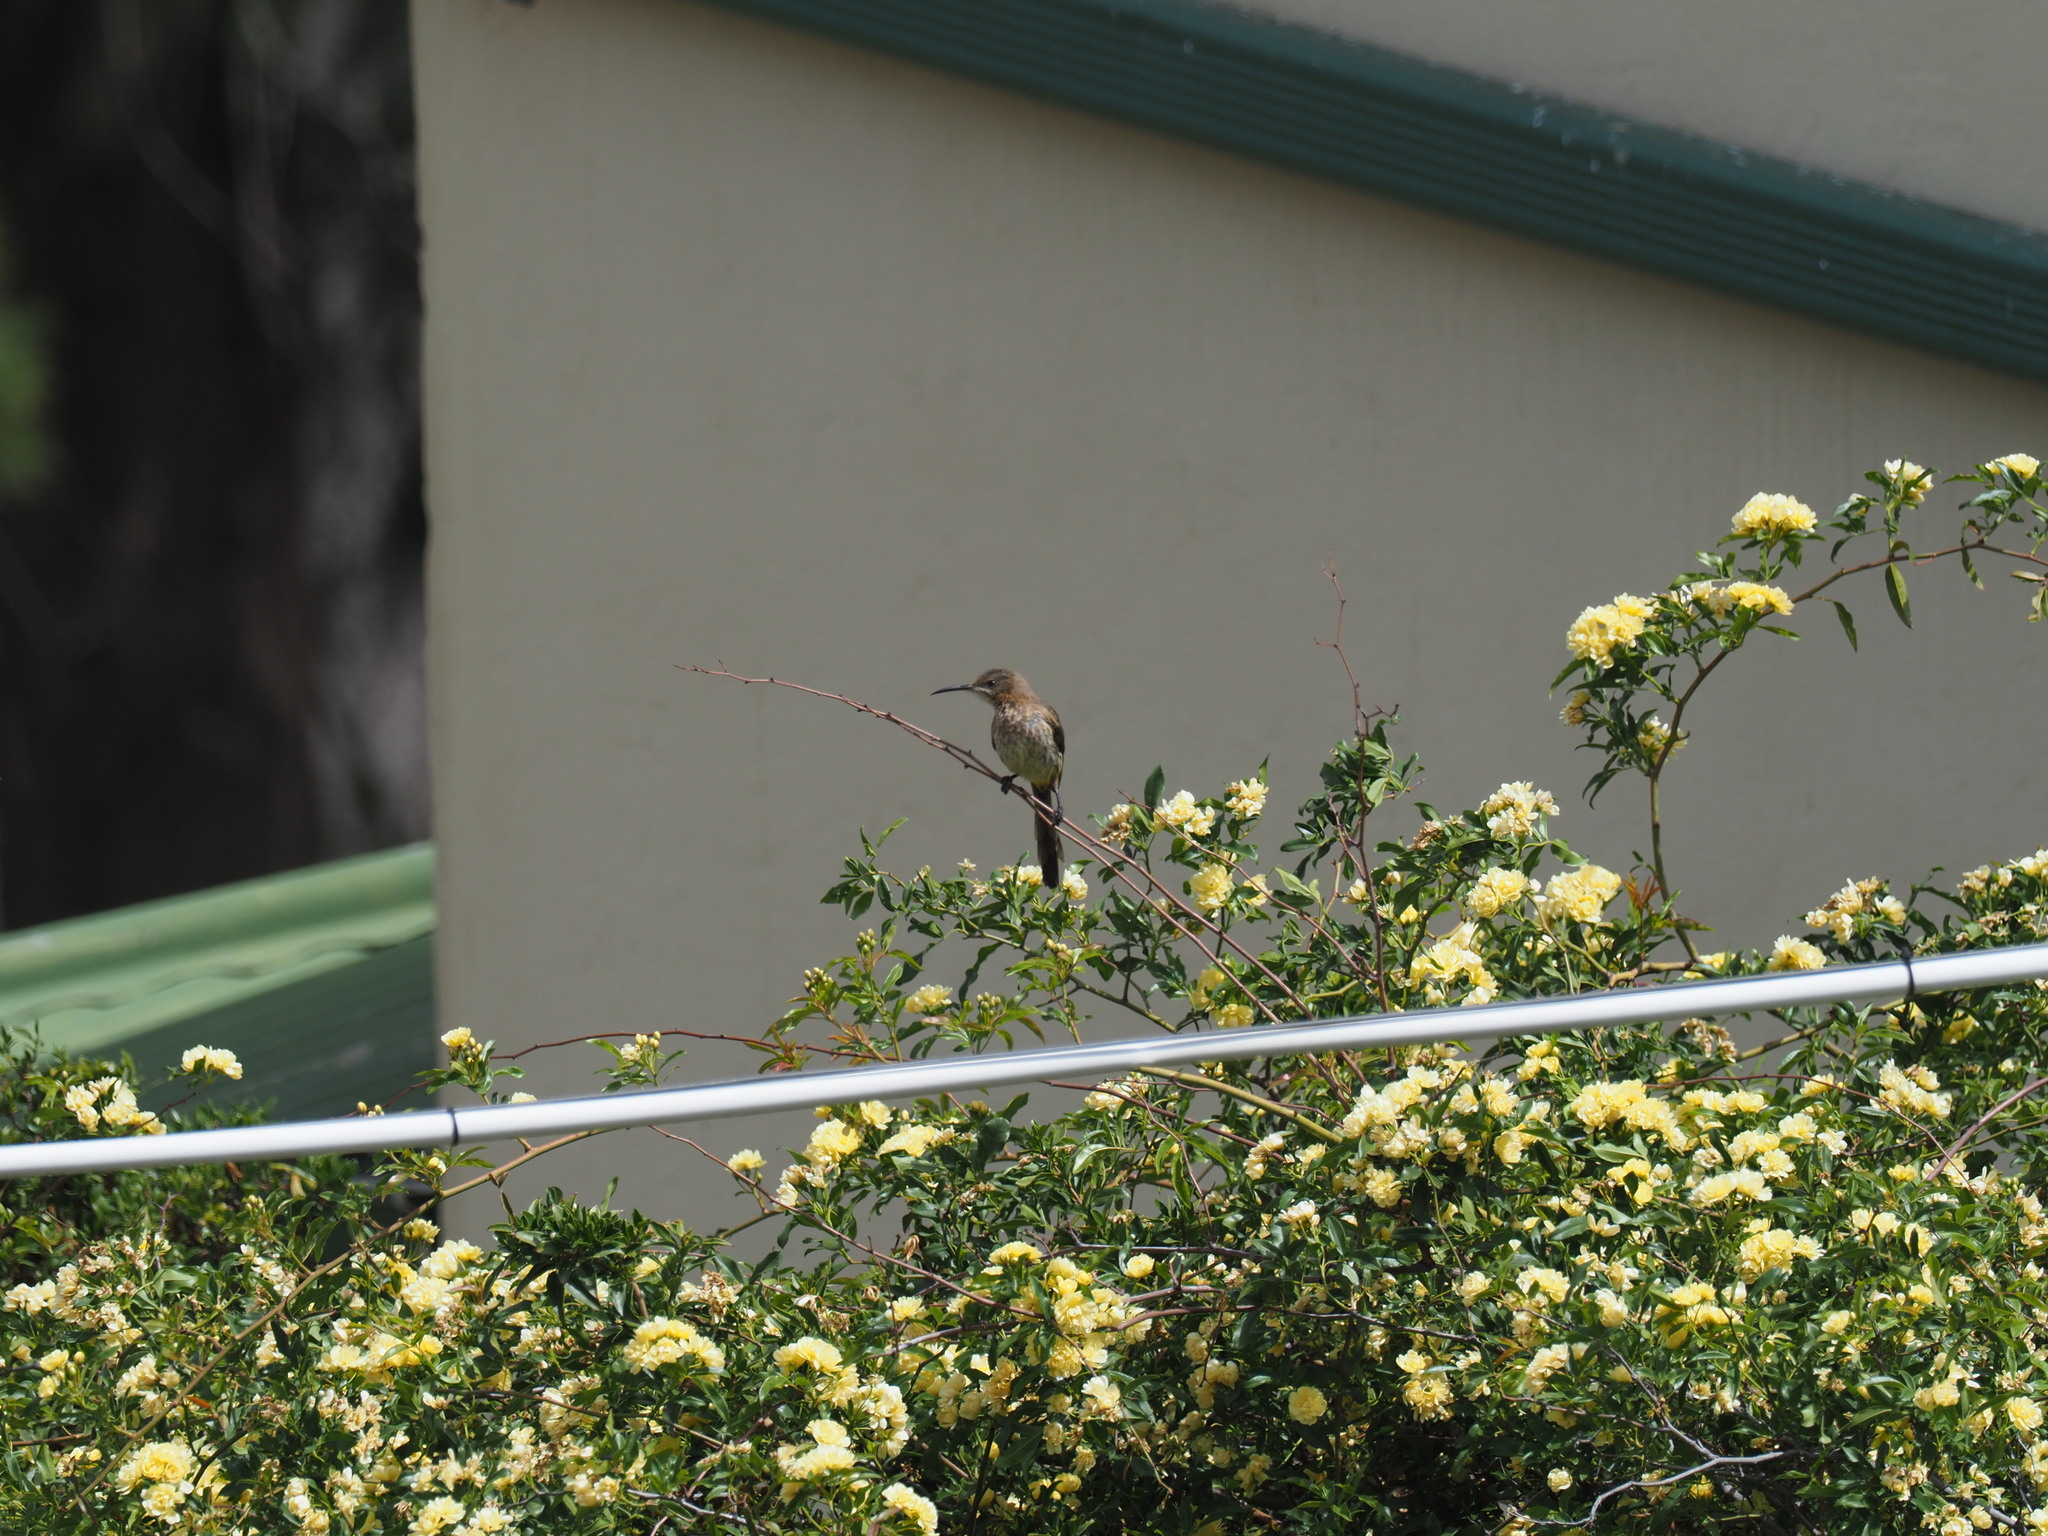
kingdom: Animalia
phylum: Chordata
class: Aves
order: Passeriformes
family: Promeropidae
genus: Promerops
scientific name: Promerops cafer
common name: Cape sugarbird
